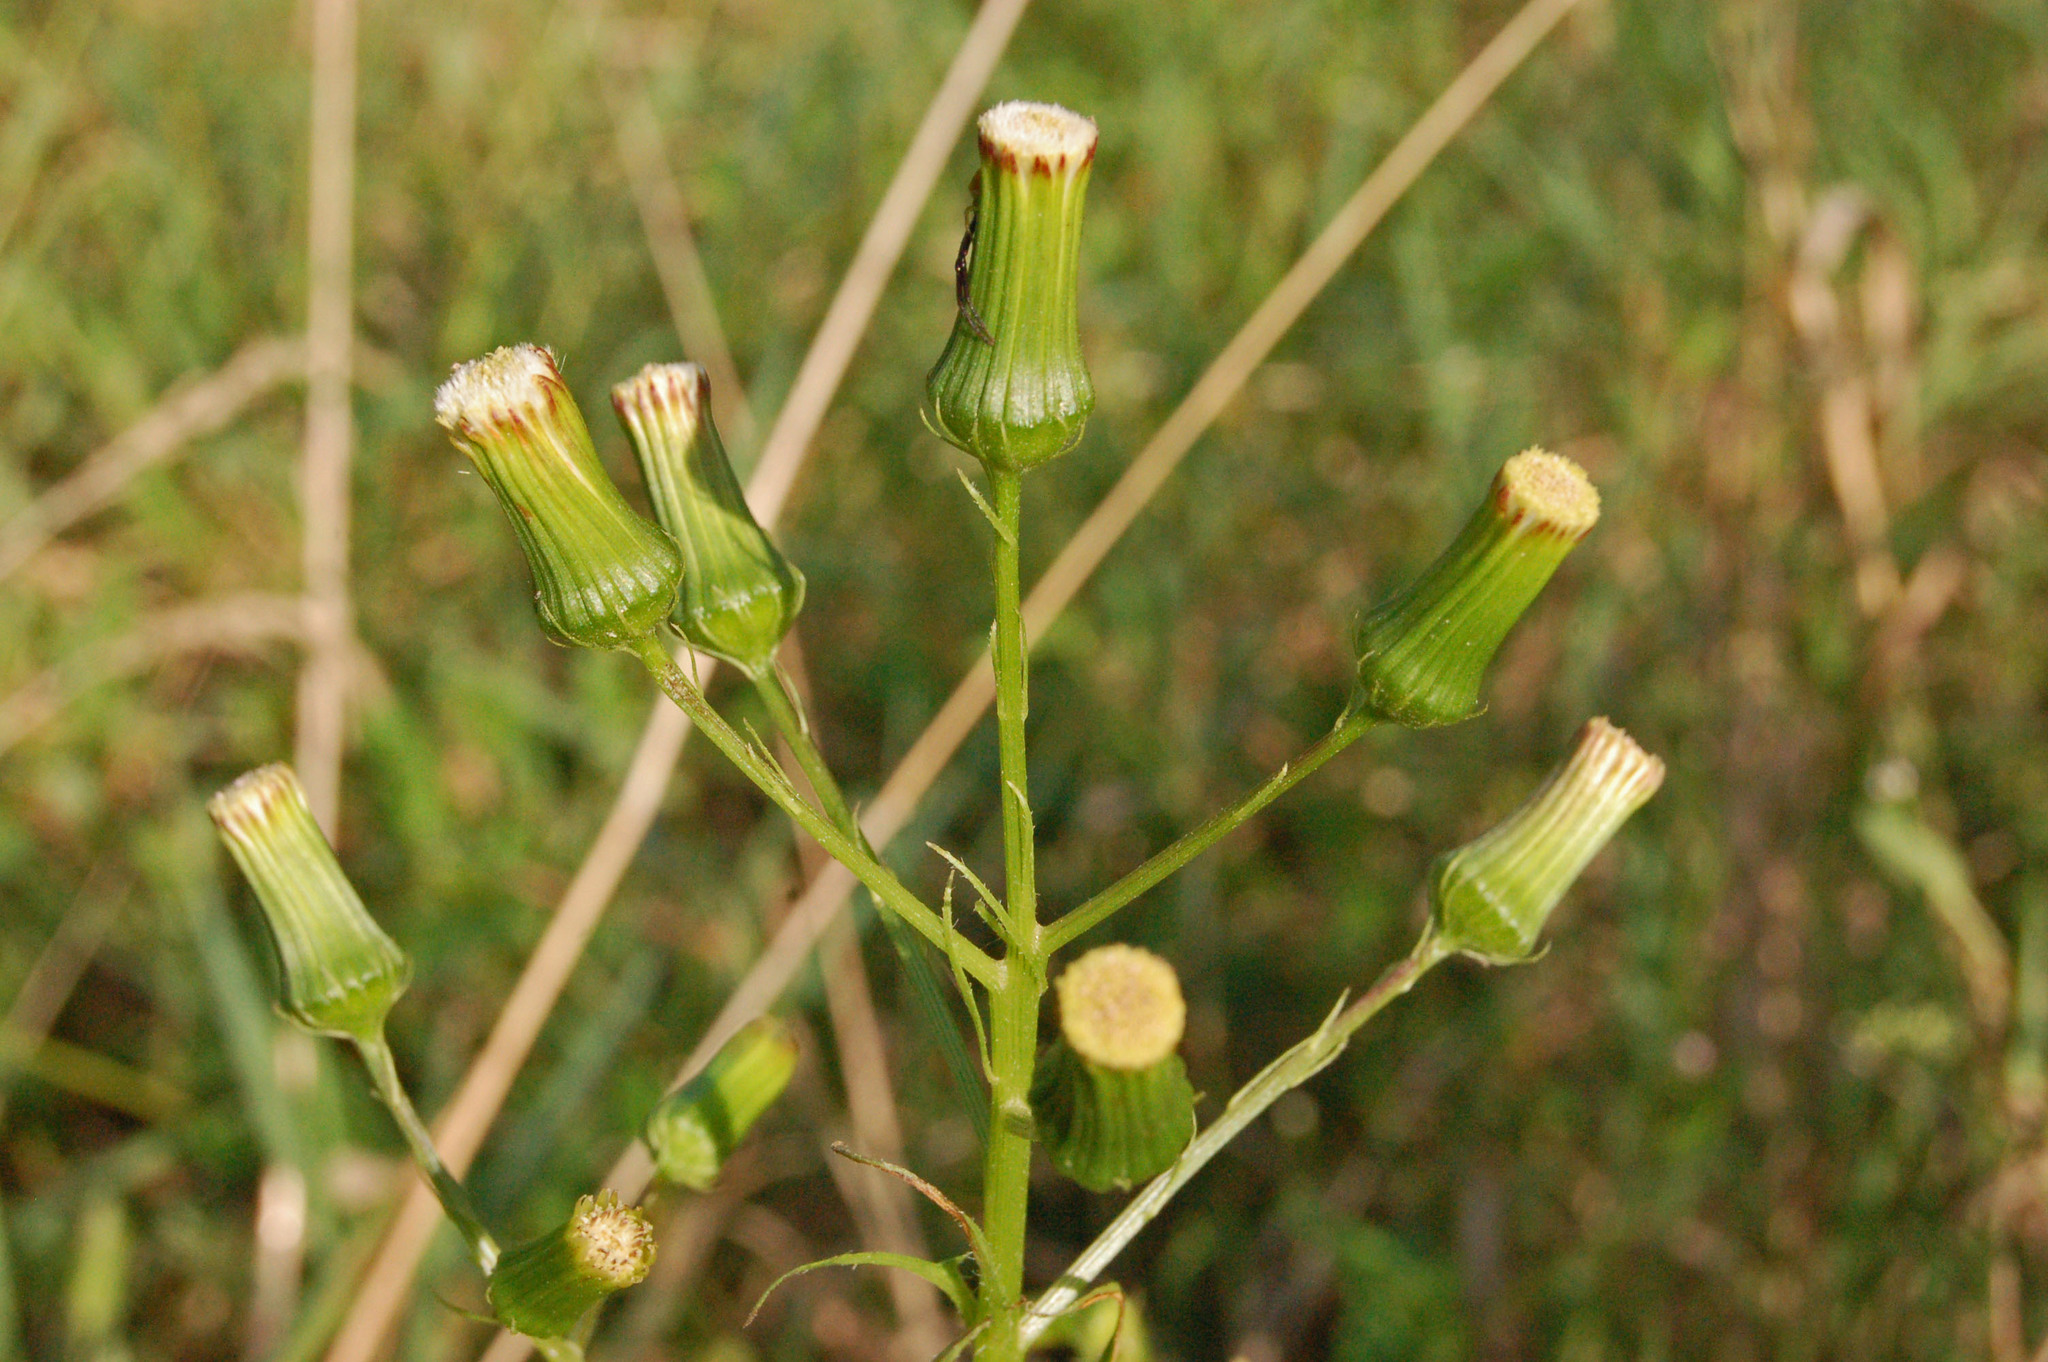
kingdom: Plantae
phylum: Tracheophyta
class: Magnoliopsida
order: Asterales
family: Asteraceae
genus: Erechtites
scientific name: Erechtites hieraciifolius
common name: American burnweed
